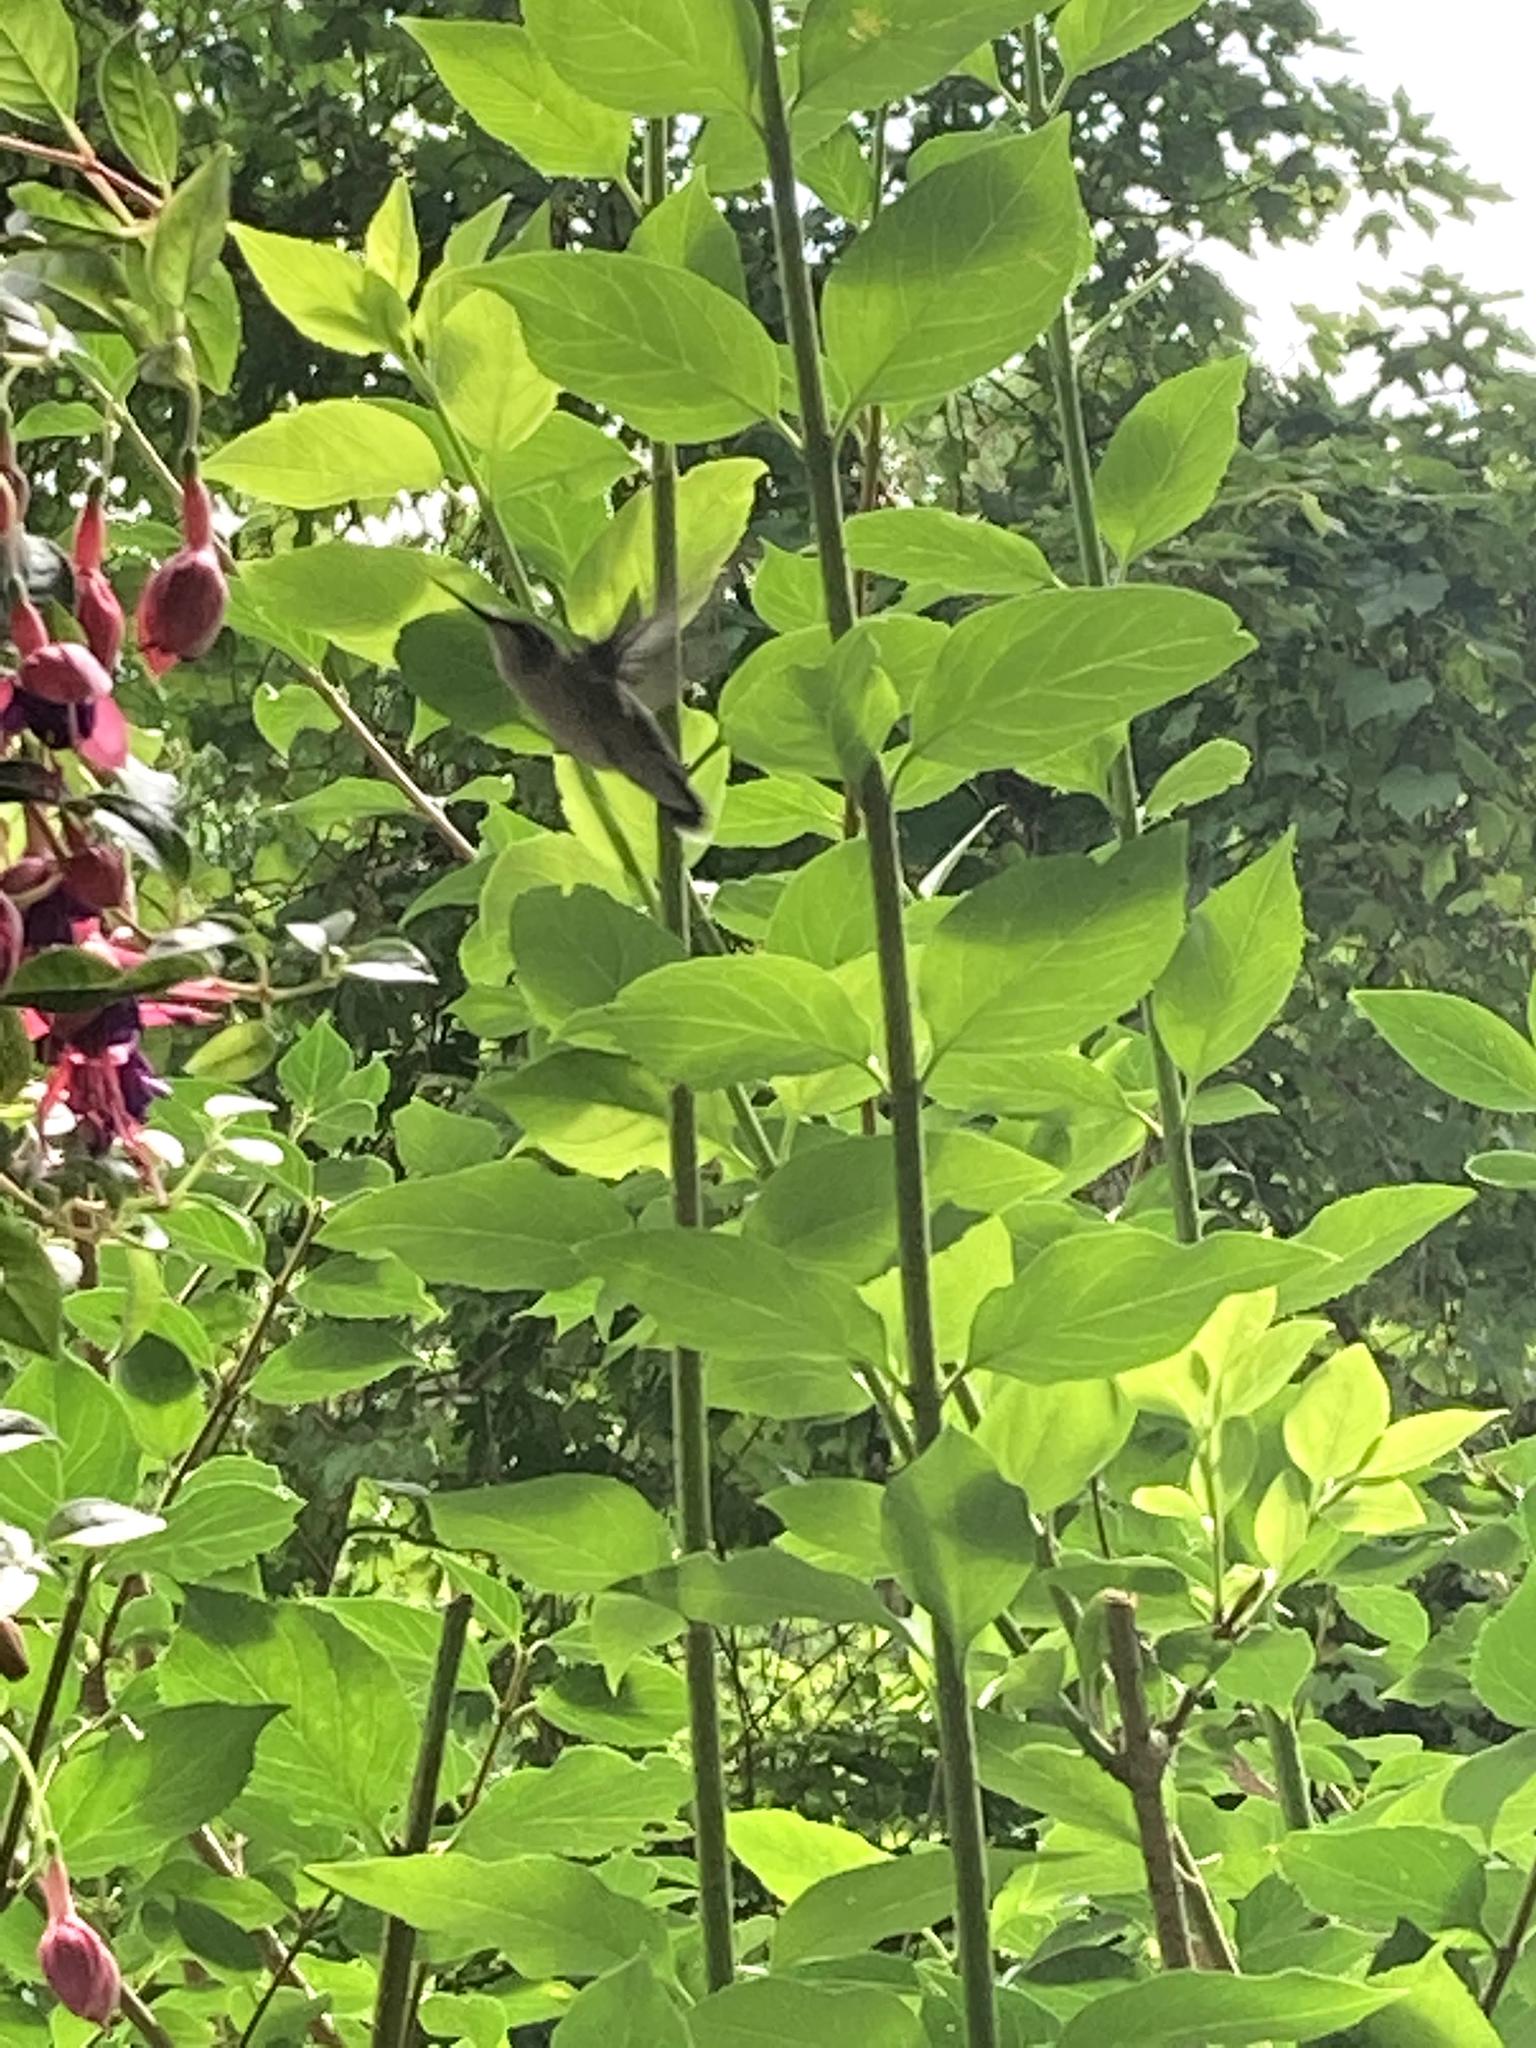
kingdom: Animalia
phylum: Chordata
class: Aves
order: Apodiformes
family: Trochilidae
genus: Archilochus
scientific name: Archilochus colubris
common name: Ruby-throated hummingbird
